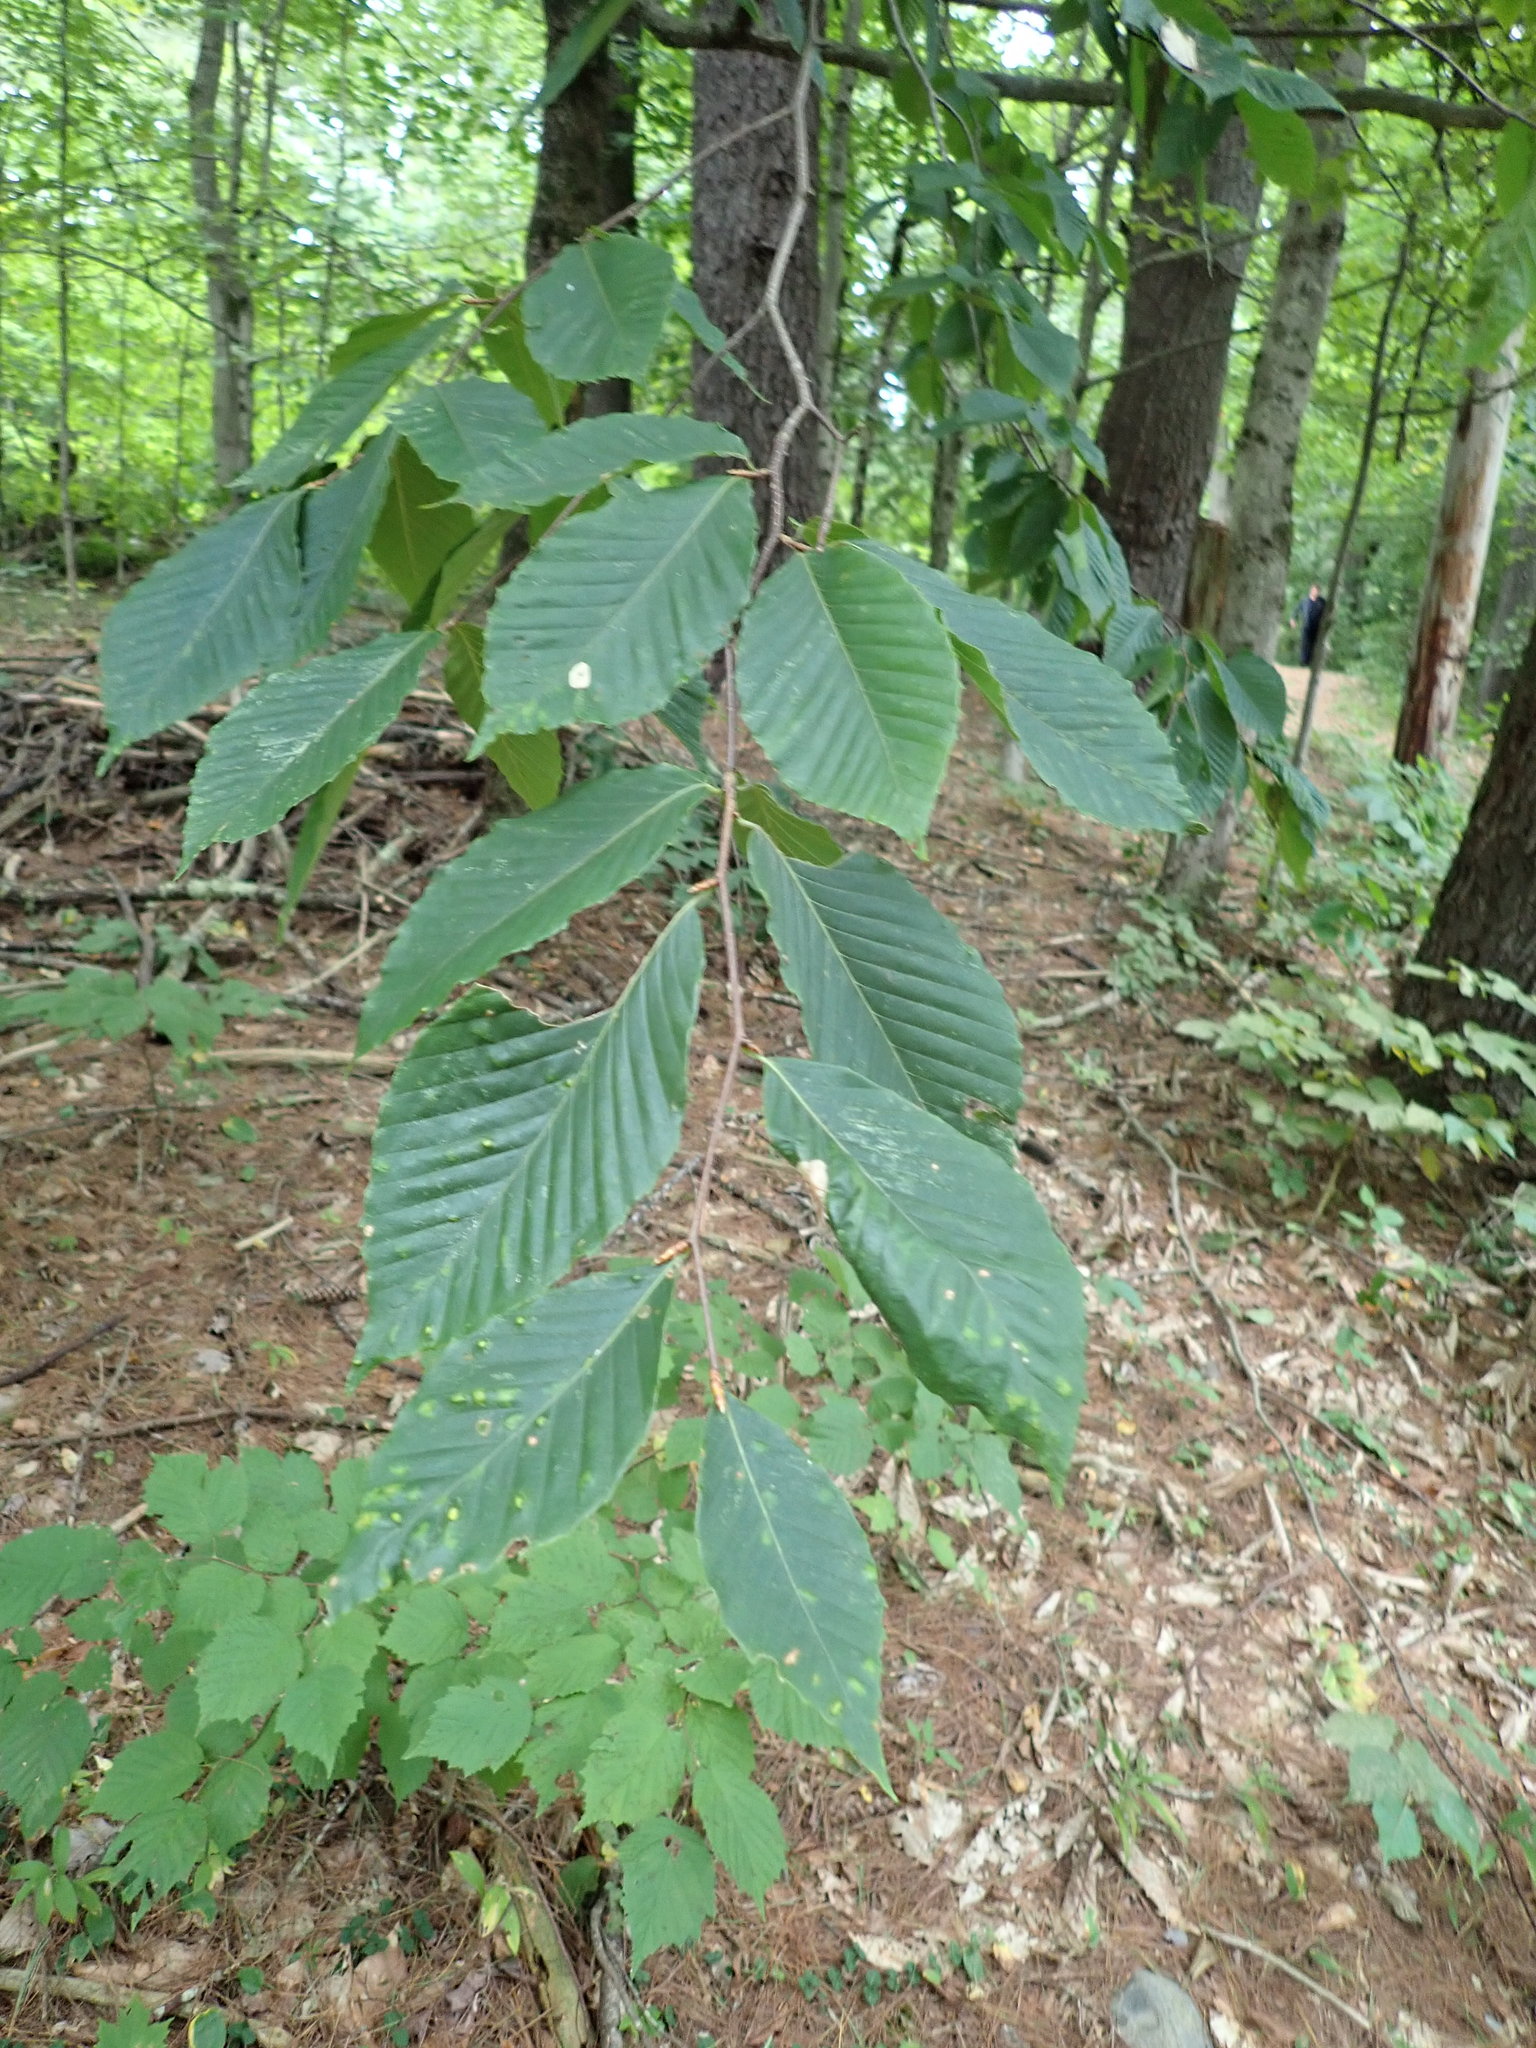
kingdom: Plantae
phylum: Tracheophyta
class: Magnoliopsida
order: Fagales
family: Fagaceae
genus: Fagus
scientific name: Fagus grandifolia
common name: American beech
